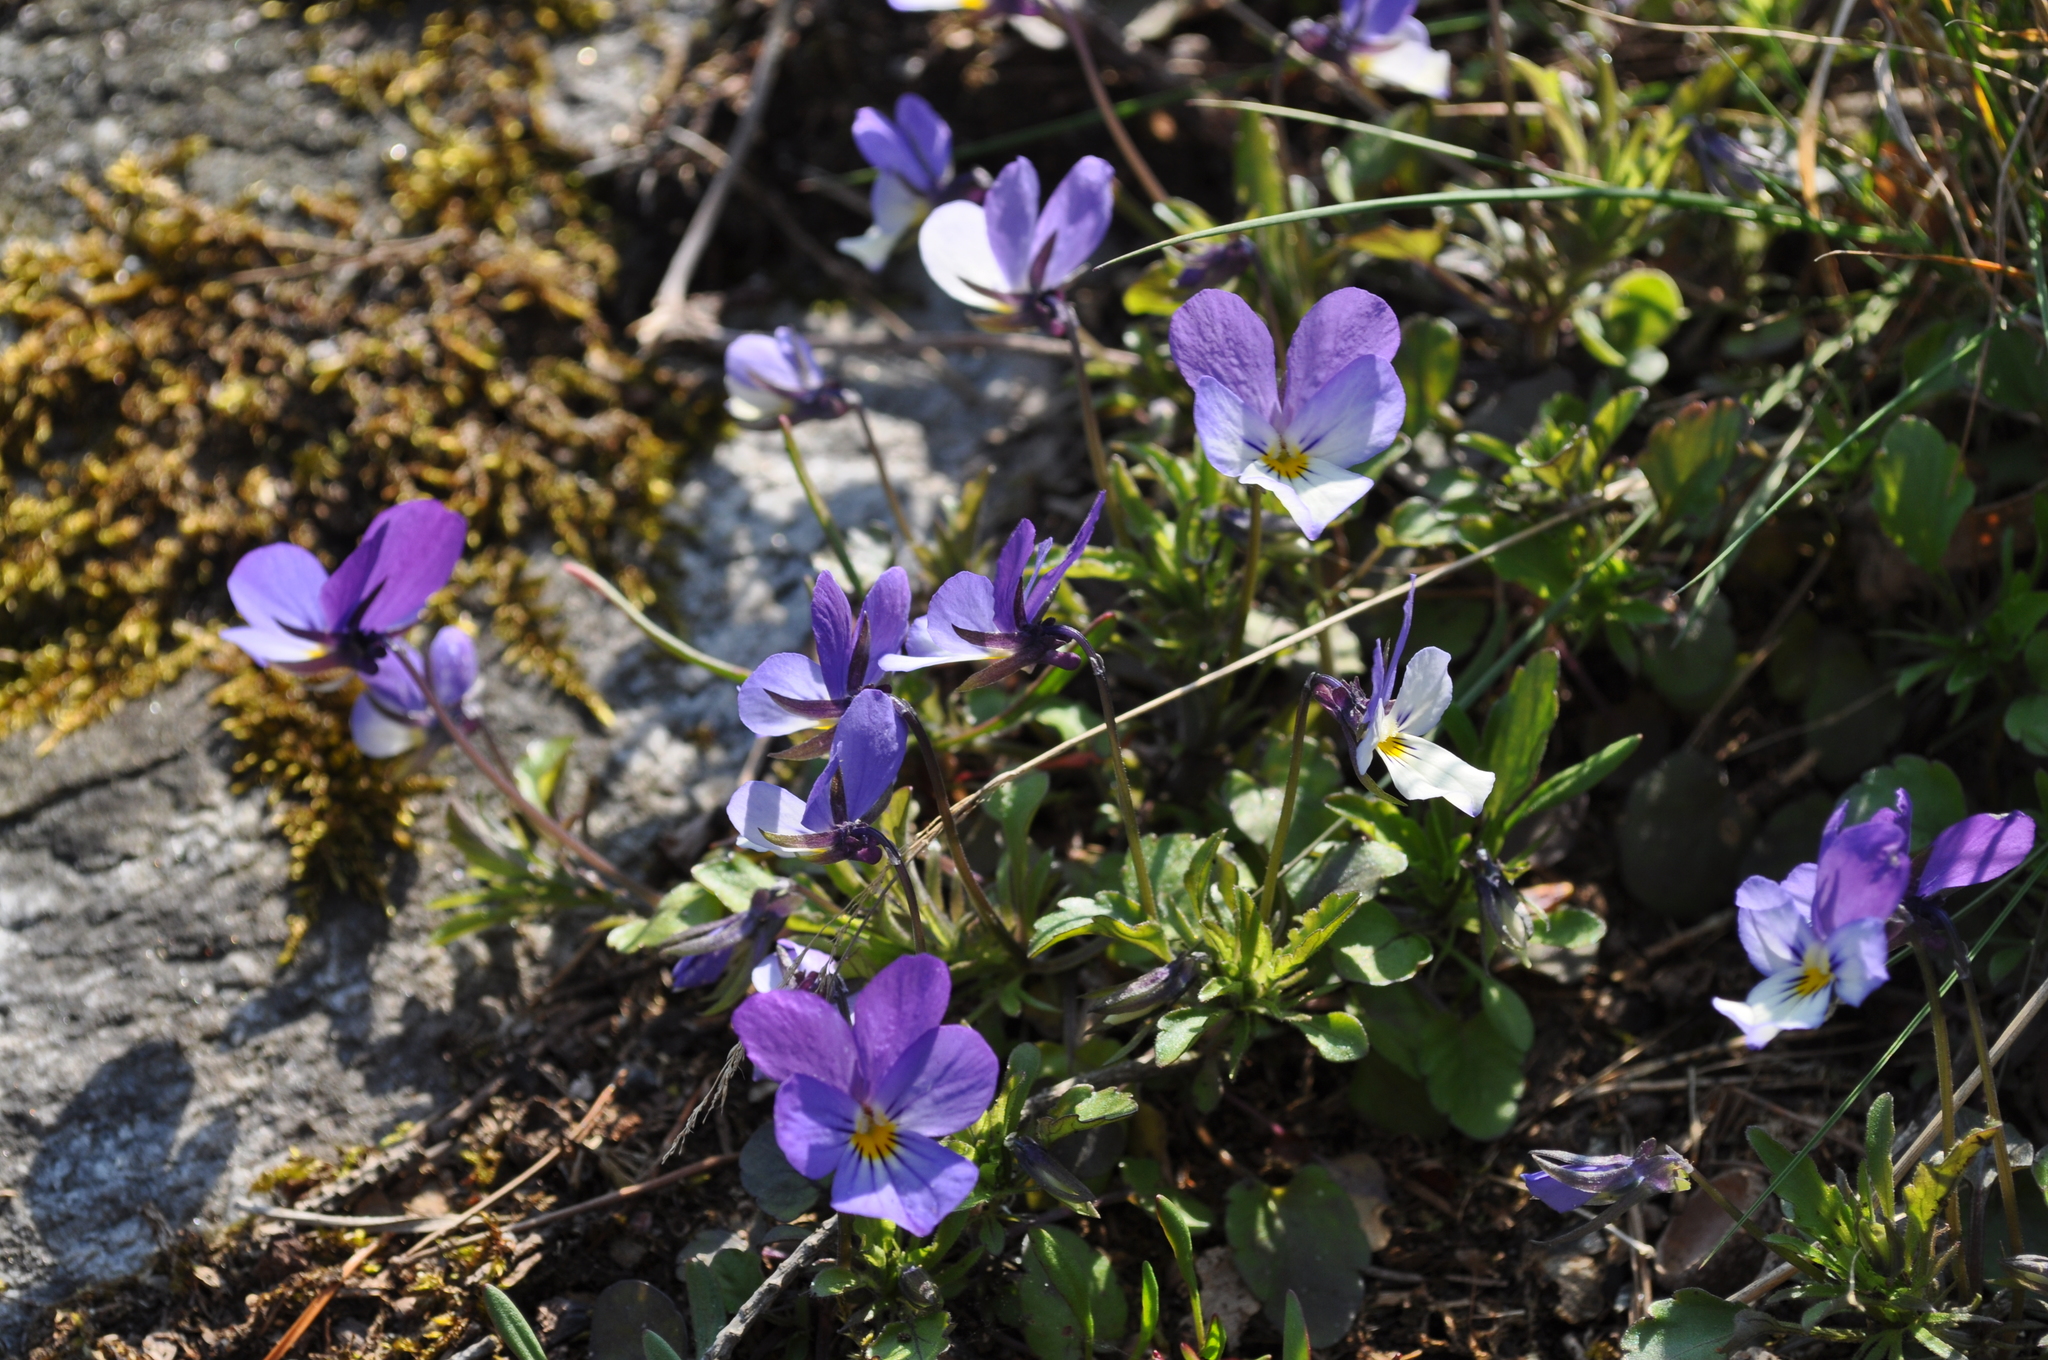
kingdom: Plantae
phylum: Tracheophyta
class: Magnoliopsida
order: Malpighiales
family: Violaceae
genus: Viola
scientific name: Viola tricolor
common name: Pansy
